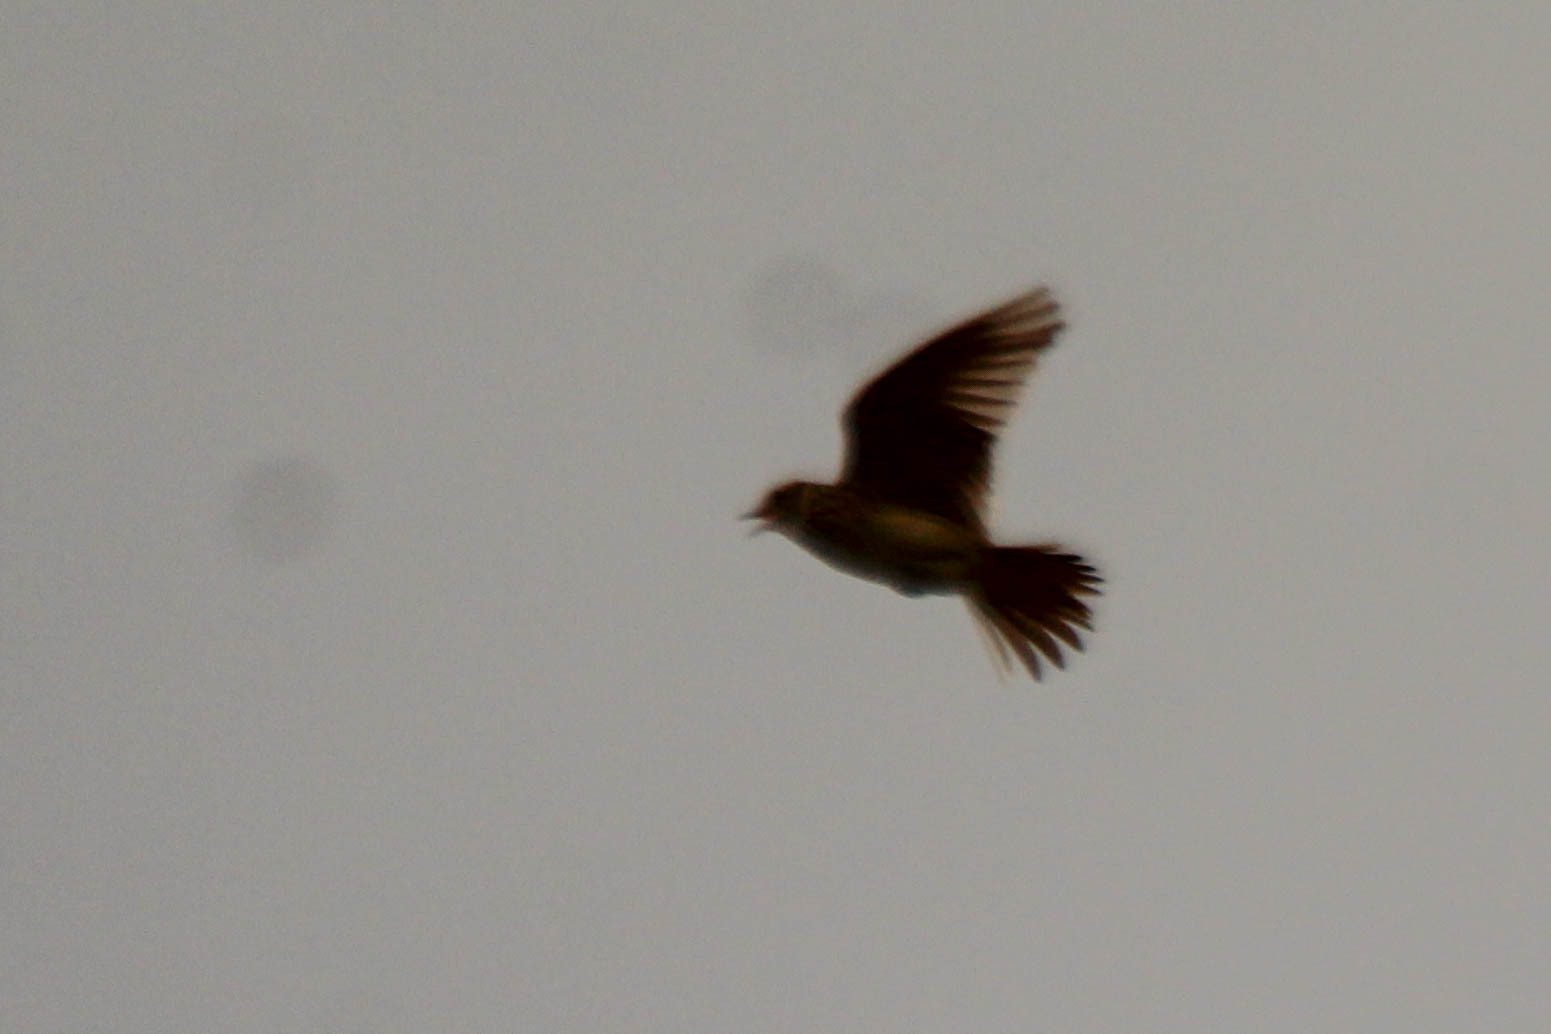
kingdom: Animalia
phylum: Chordata
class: Aves
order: Passeriformes
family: Alaudidae
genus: Alauda
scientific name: Alauda arvensis
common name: Eurasian skylark
